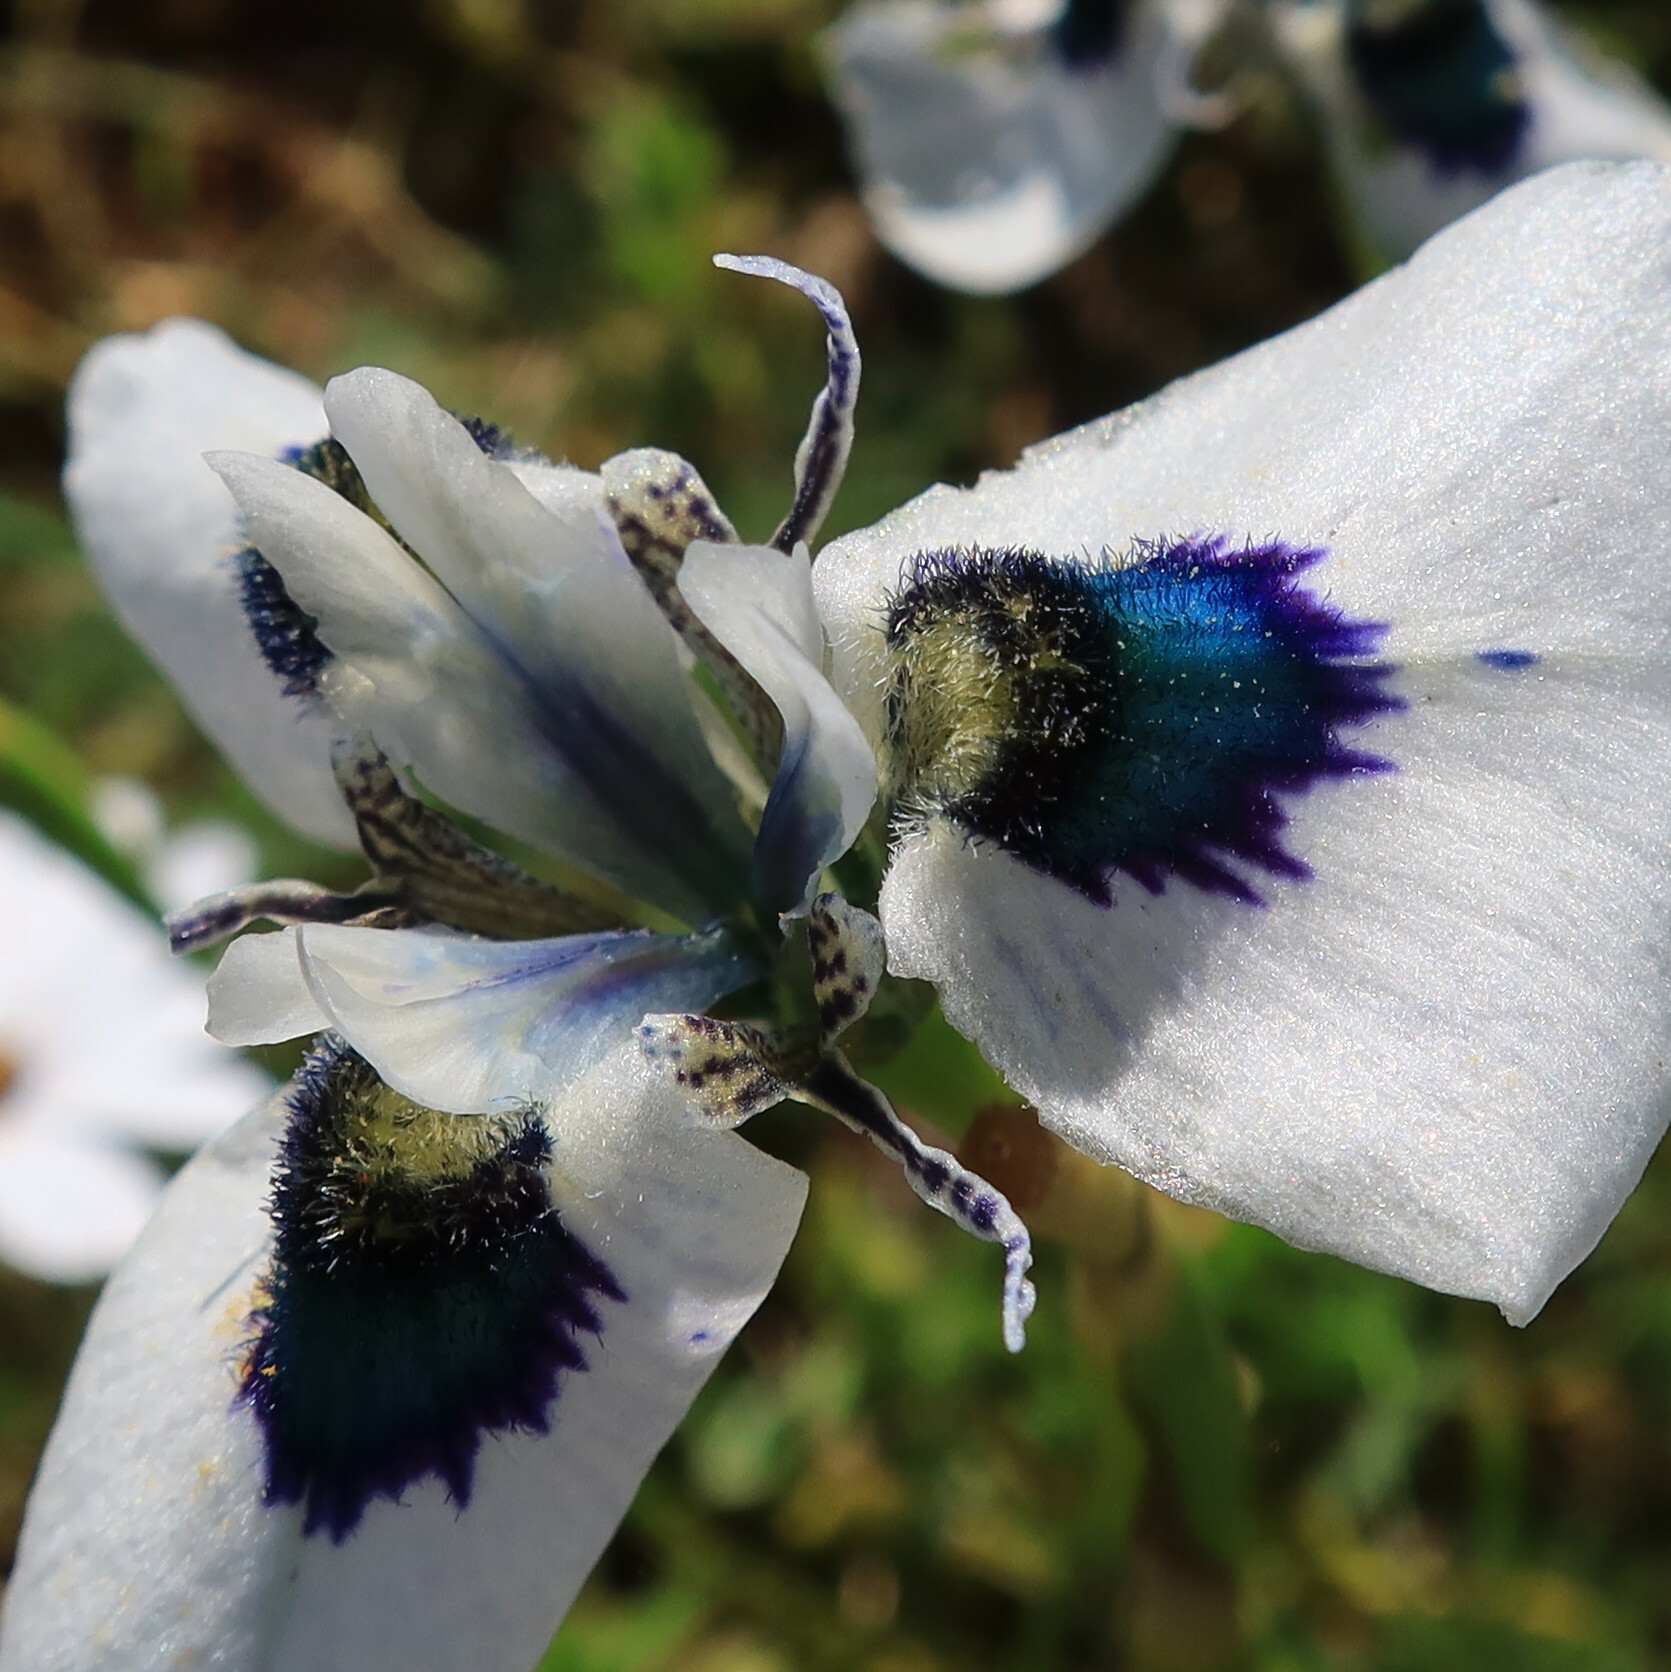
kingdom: Plantae
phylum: Tracheophyta
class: Liliopsida
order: Asparagales
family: Iridaceae
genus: Moraea
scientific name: Moraea aristata
